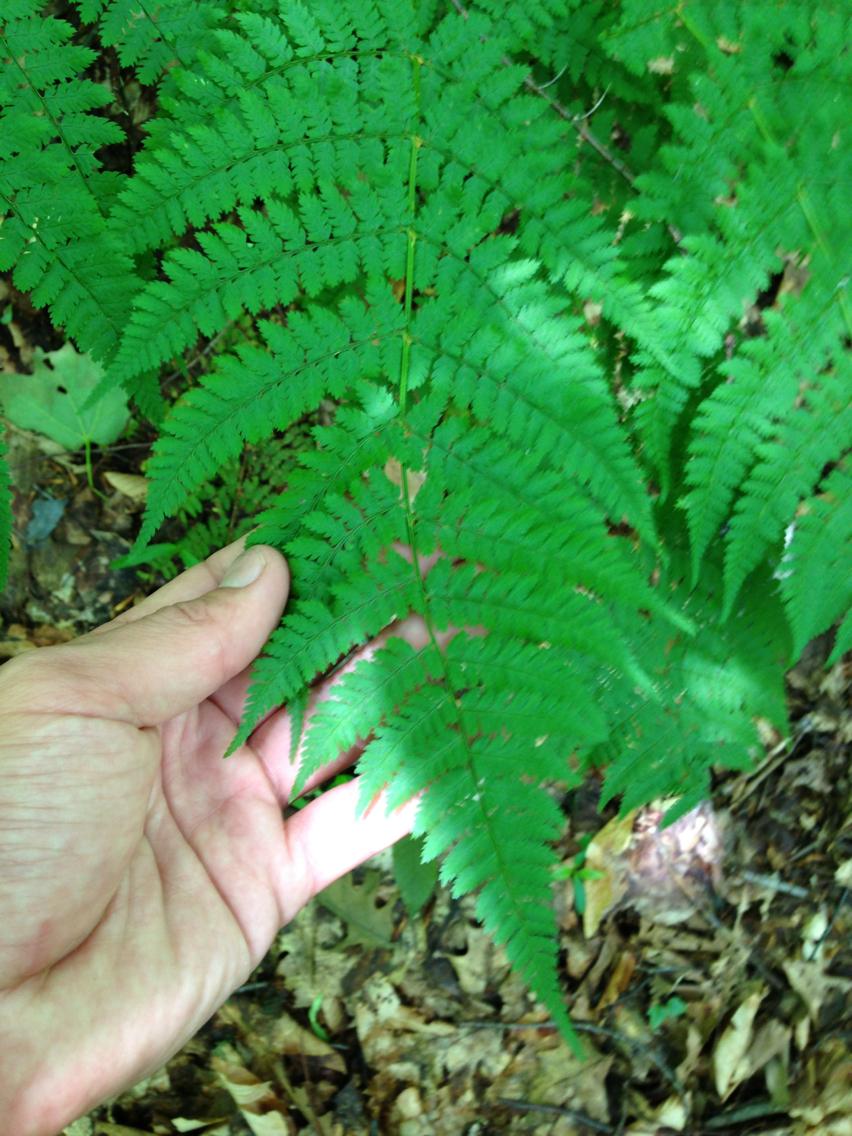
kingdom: Plantae
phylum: Tracheophyta
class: Polypodiopsida
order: Polypodiales
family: Dryopteridaceae
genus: Dryopteris
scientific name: Dryopteris intermedia
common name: Evergreen wood fern
